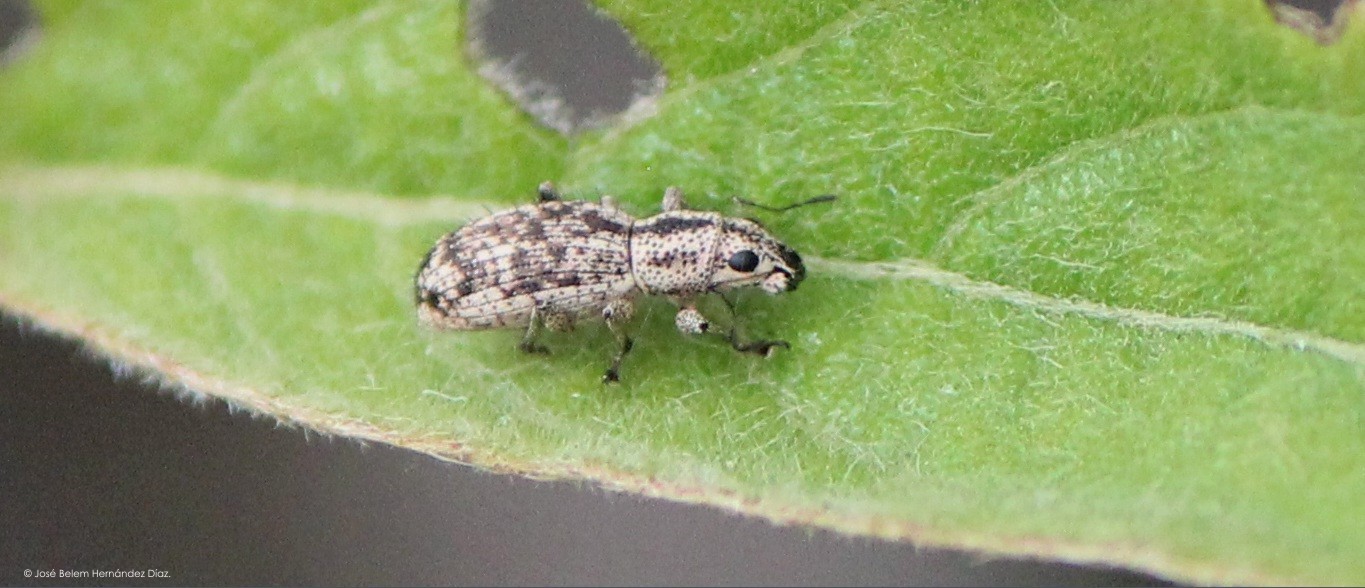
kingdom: Animalia
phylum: Arthropoda
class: Insecta
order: Coleoptera
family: Curculionidae
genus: Mitostylus
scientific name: Mitostylus setosus
